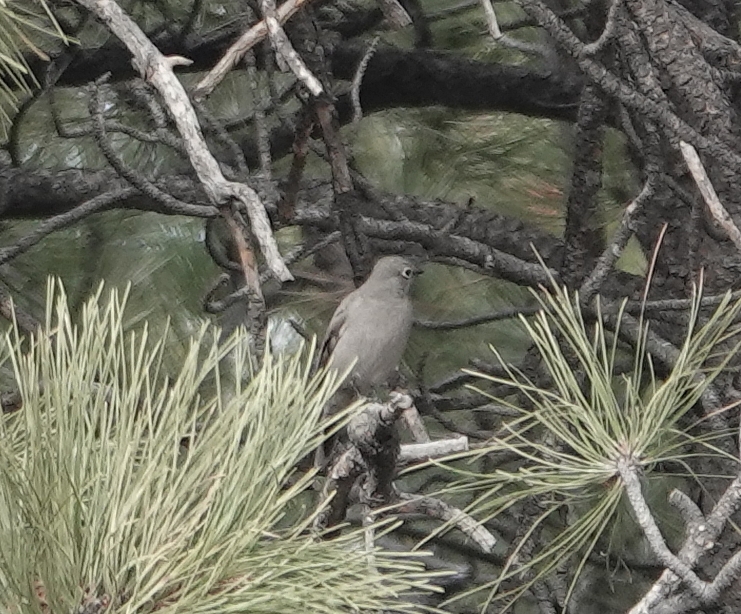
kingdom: Animalia
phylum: Chordata
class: Aves
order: Passeriformes
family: Turdidae
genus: Myadestes
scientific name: Myadestes townsendi
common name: Townsend's solitaire
